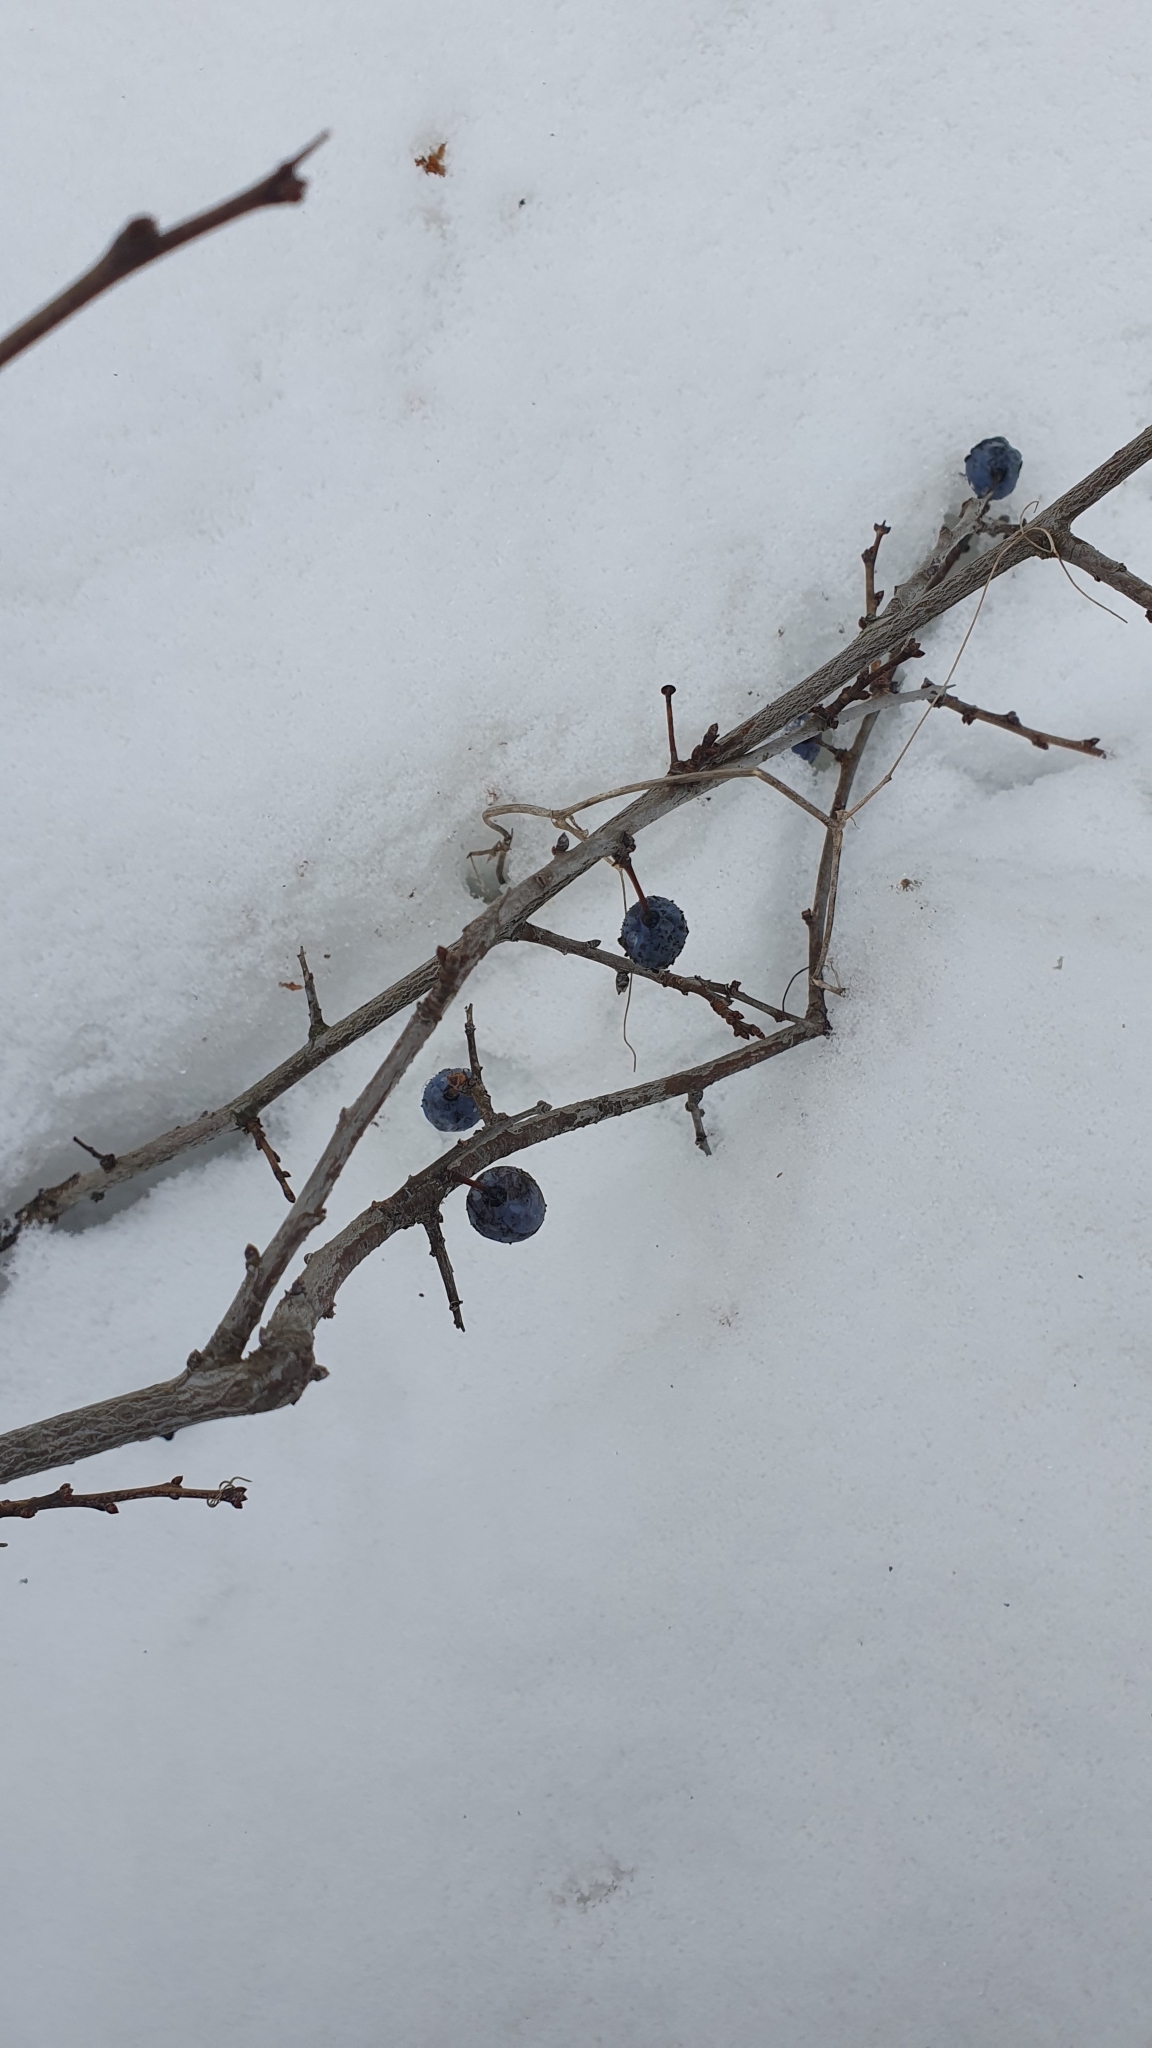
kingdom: Plantae
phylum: Tracheophyta
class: Magnoliopsida
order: Rosales
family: Rosaceae
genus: Prunus
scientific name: Prunus spinosa
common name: Blackthorn
